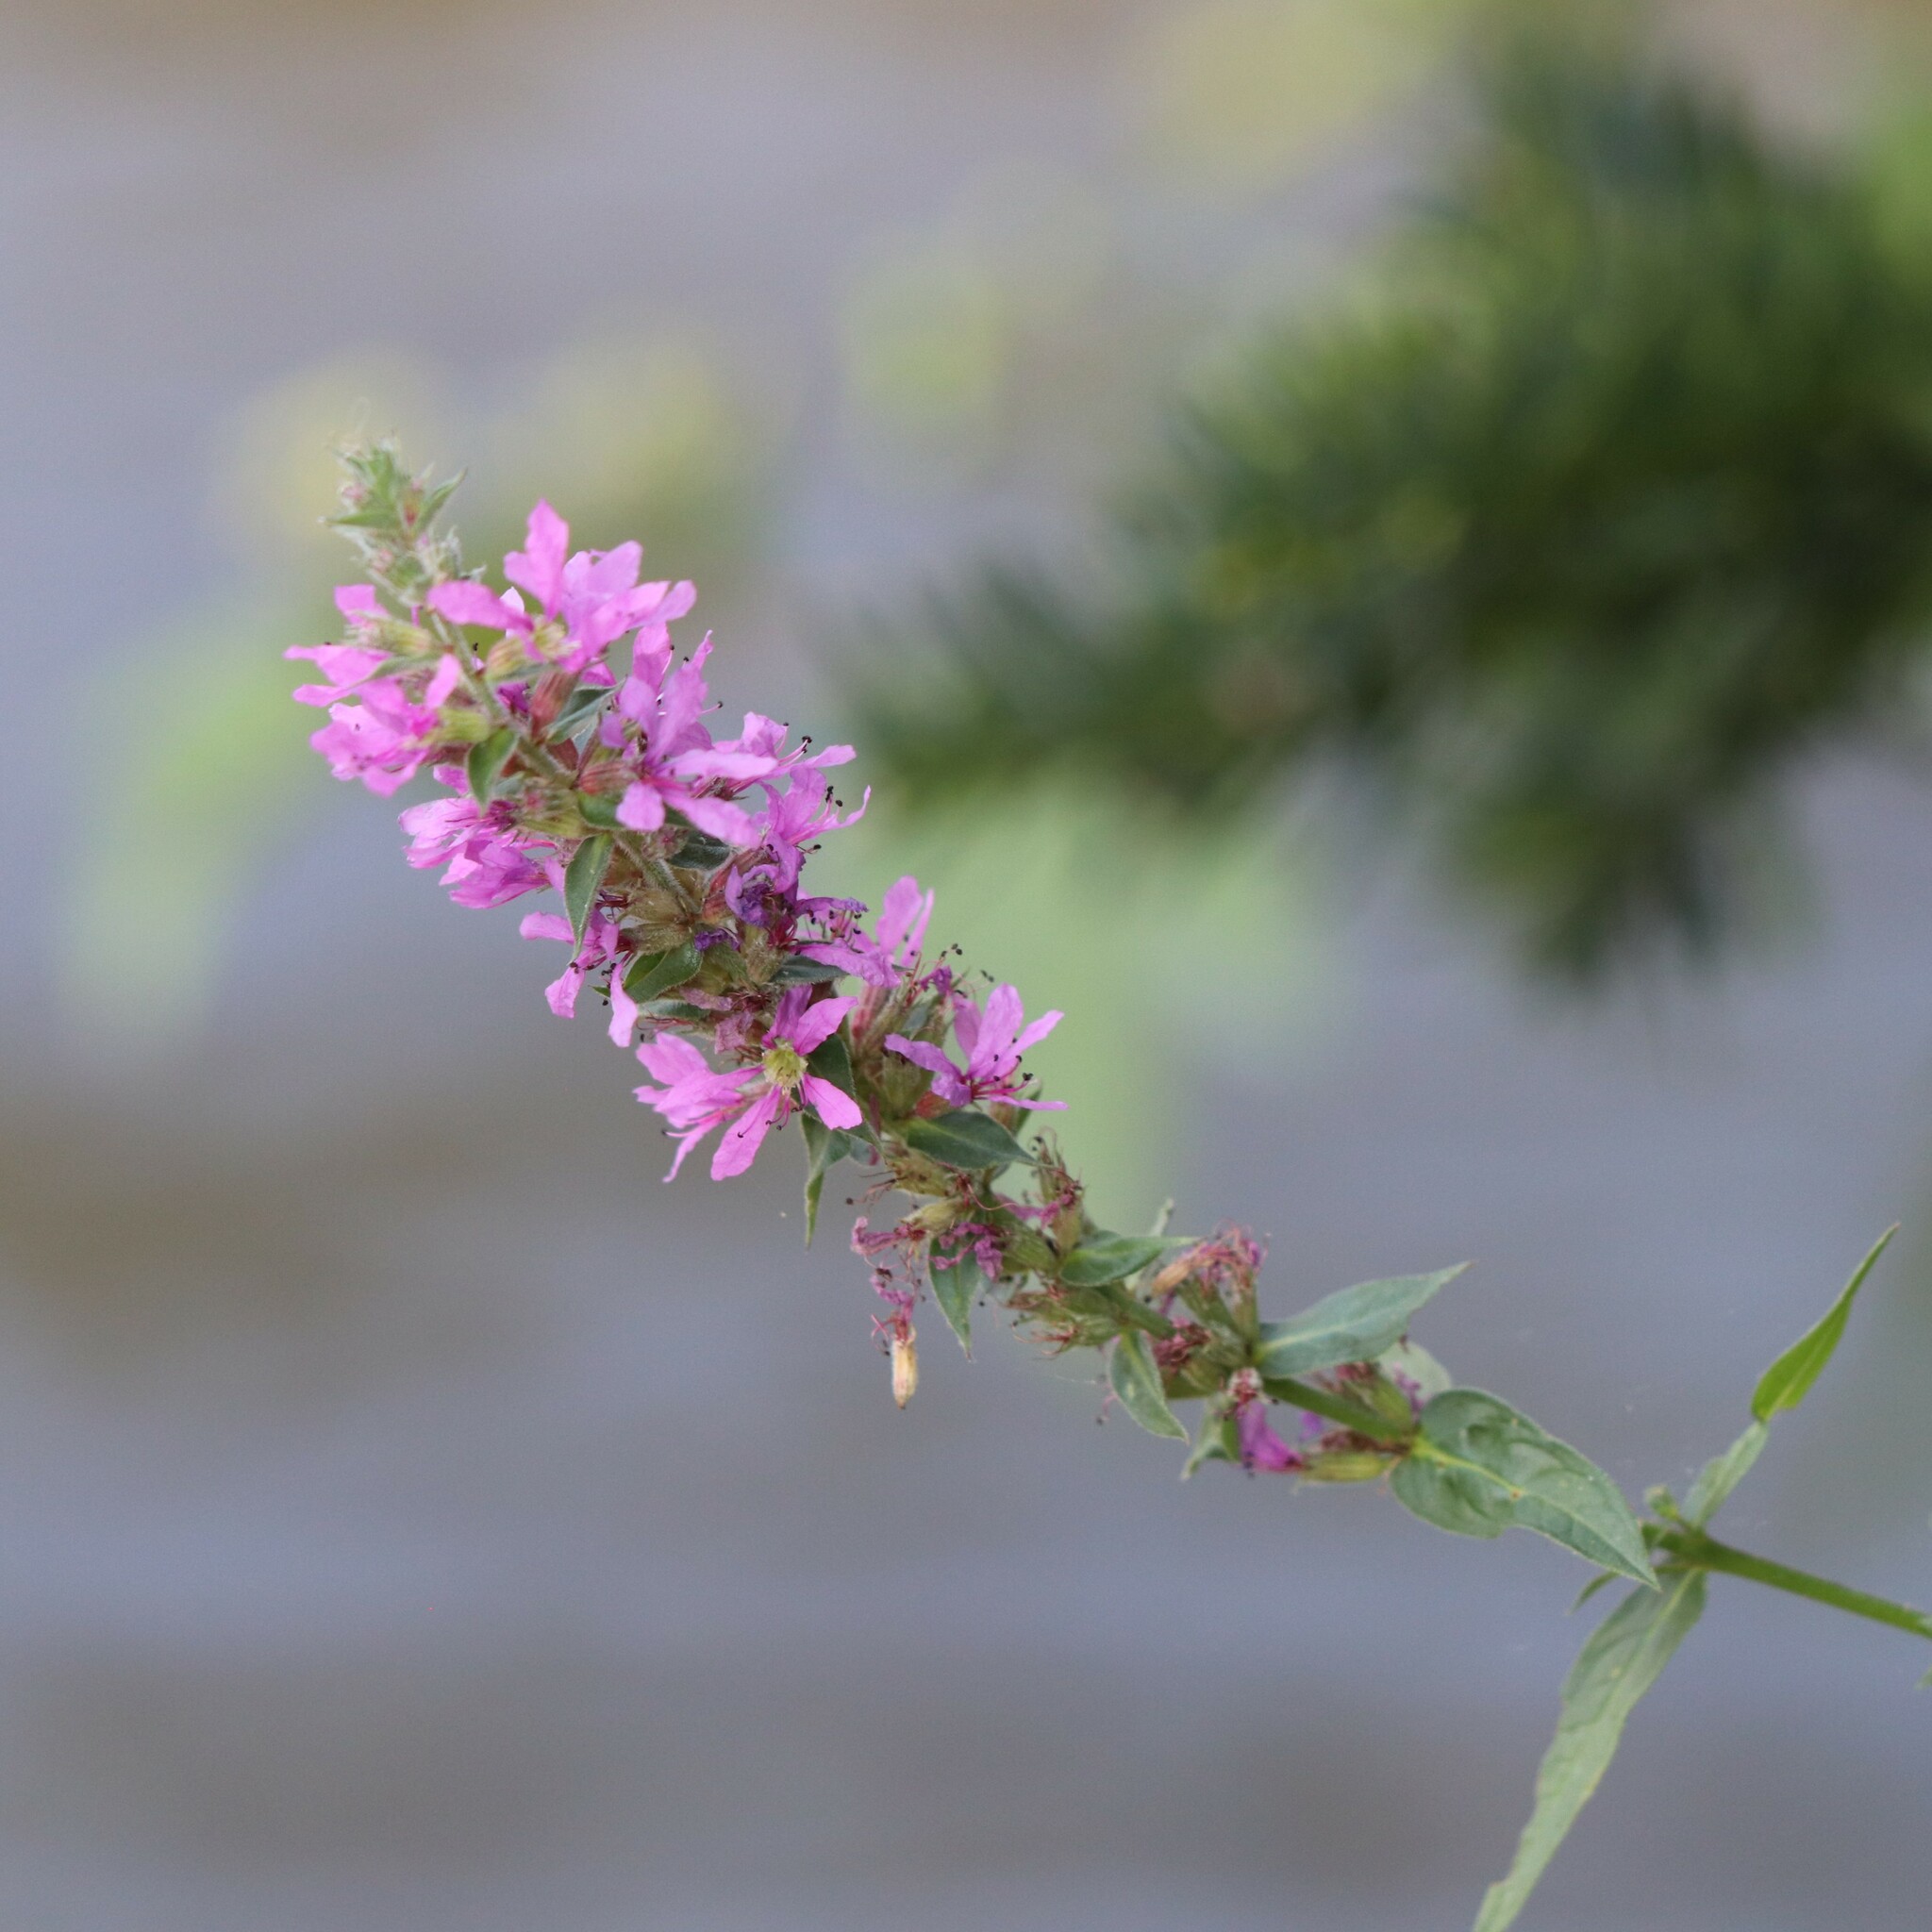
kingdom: Plantae
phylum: Tracheophyta
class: Magnoliopsida
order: Myrtales
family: Lythraceae
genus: Lythrum
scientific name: Lythrum salicaria
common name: Purple loosestrife
